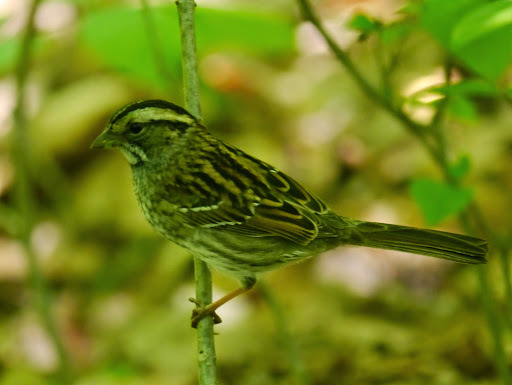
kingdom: Animalia
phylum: Chordata
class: Aves
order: Passeriformes
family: Passerellidae
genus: Zonotrichia
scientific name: Zonotrichia albicollis
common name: White-throated sparrow
